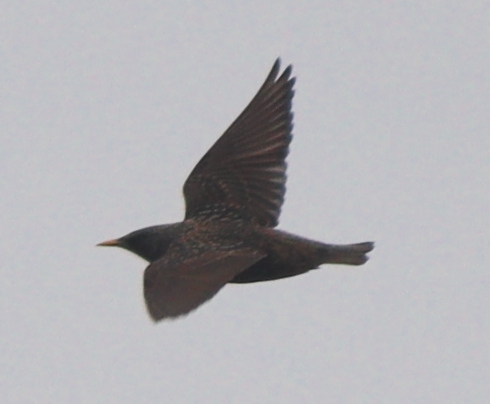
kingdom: Animalia
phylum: Chordata
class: Aves
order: Passeriformes
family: Sturnidae
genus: Sturnus
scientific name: Sturnus vulgaris
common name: Common starling
